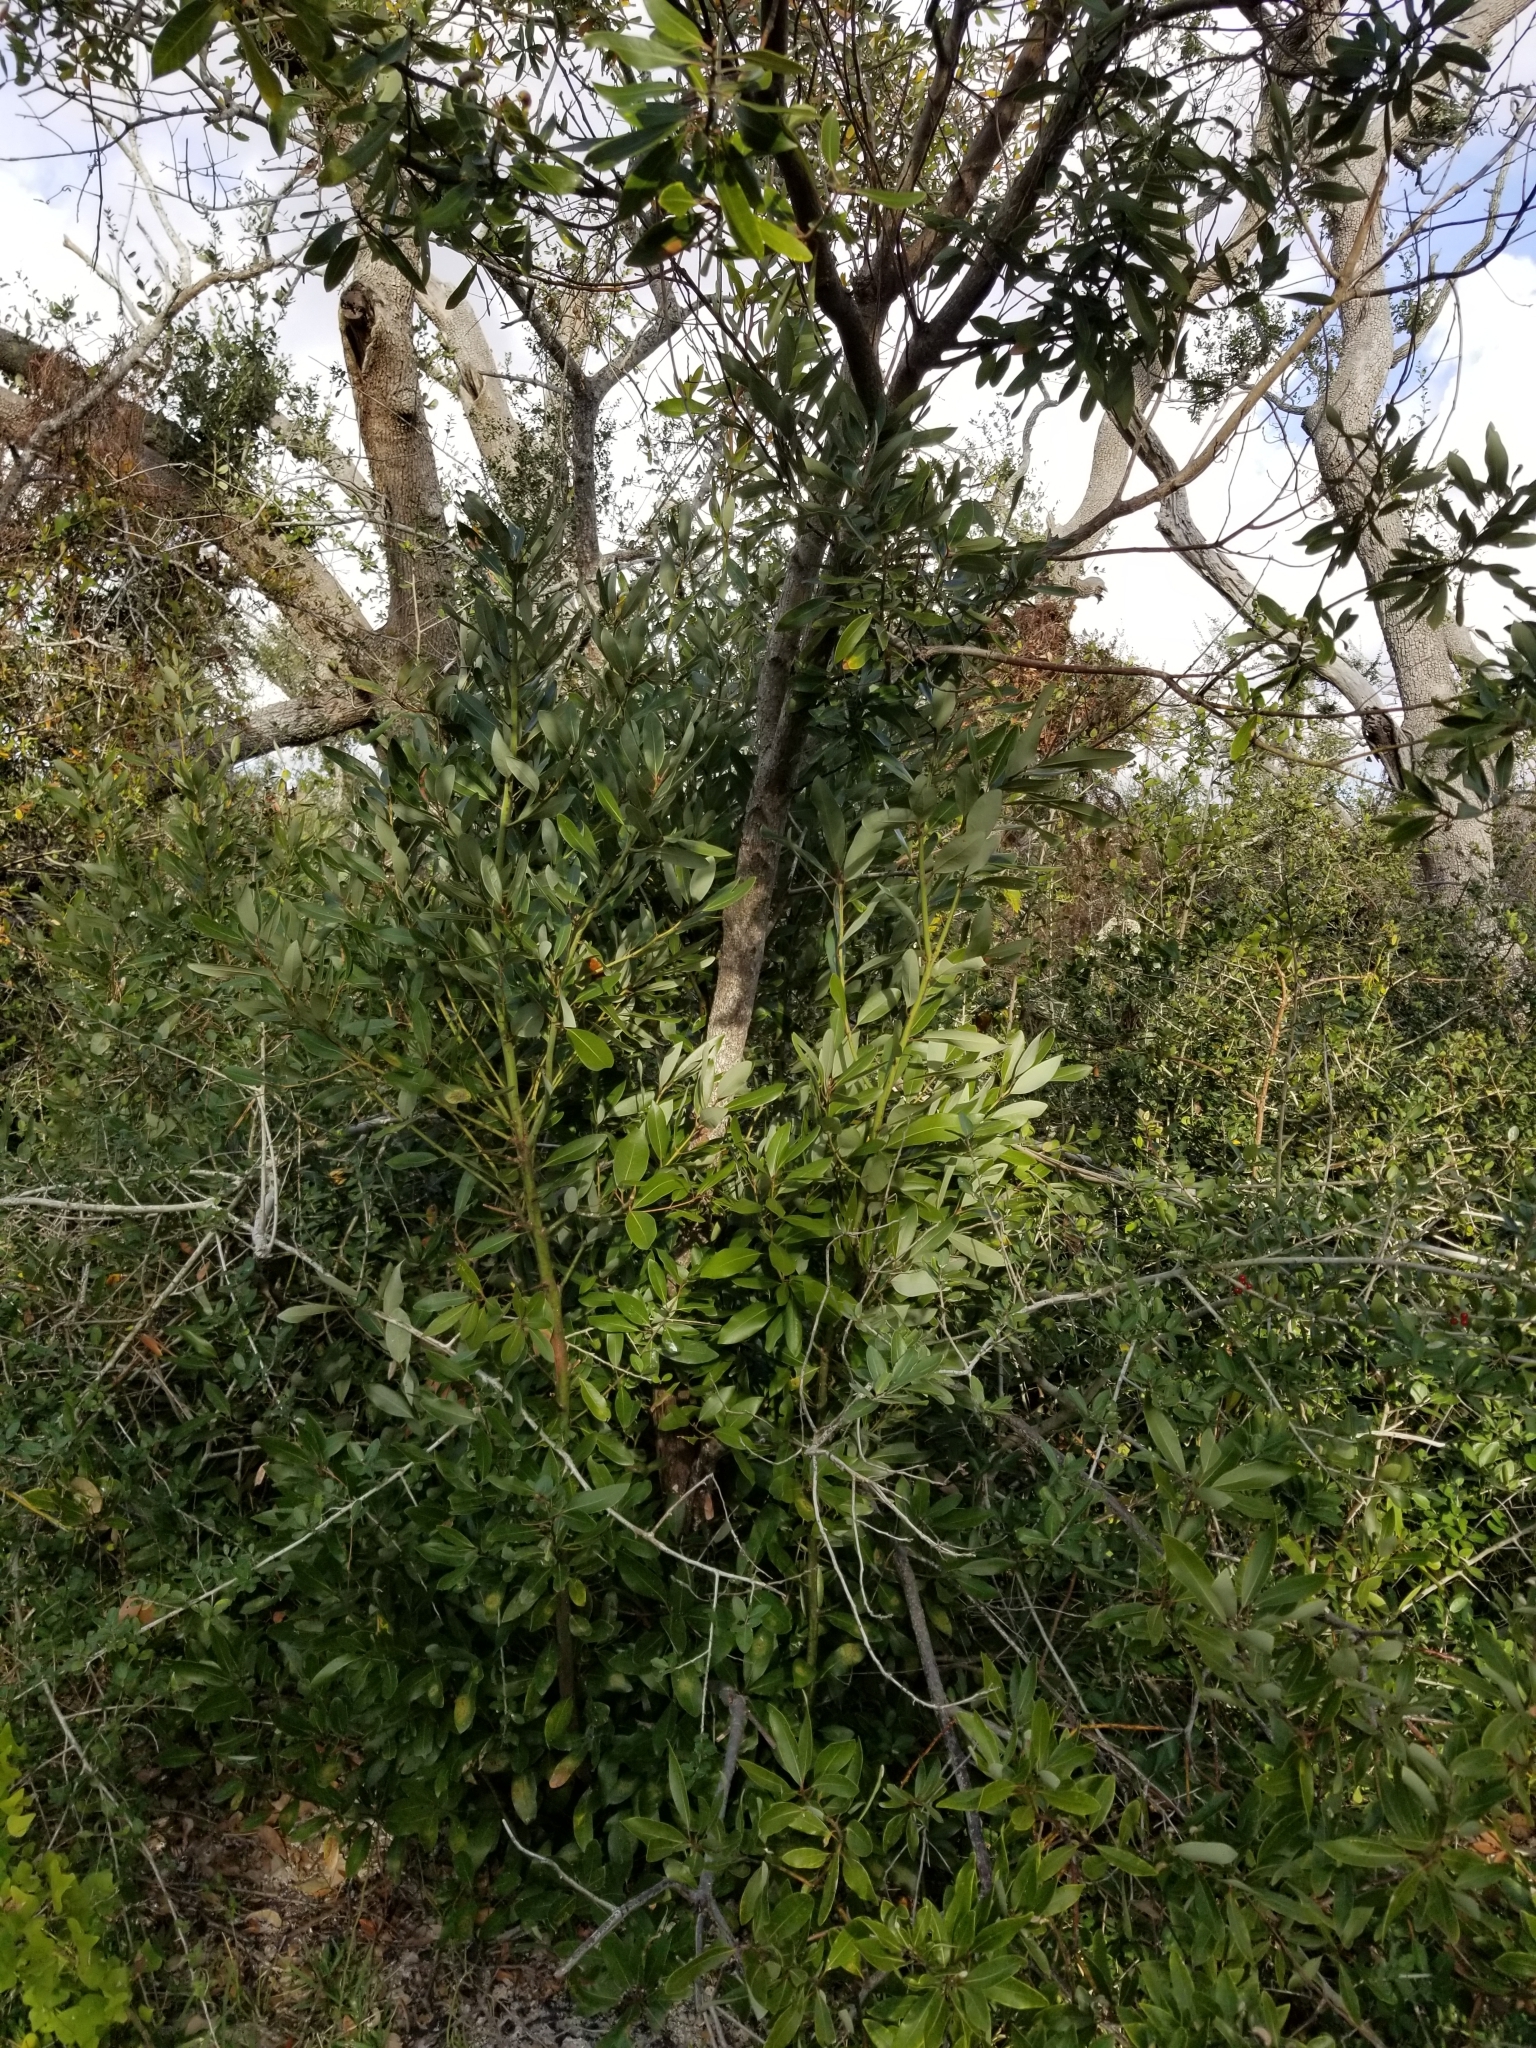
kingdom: Plantae
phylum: Tracheophyta
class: Magnoliopsida
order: Laurales
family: Lauraceae
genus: Persea
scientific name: Persea borbonia
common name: Redbay
